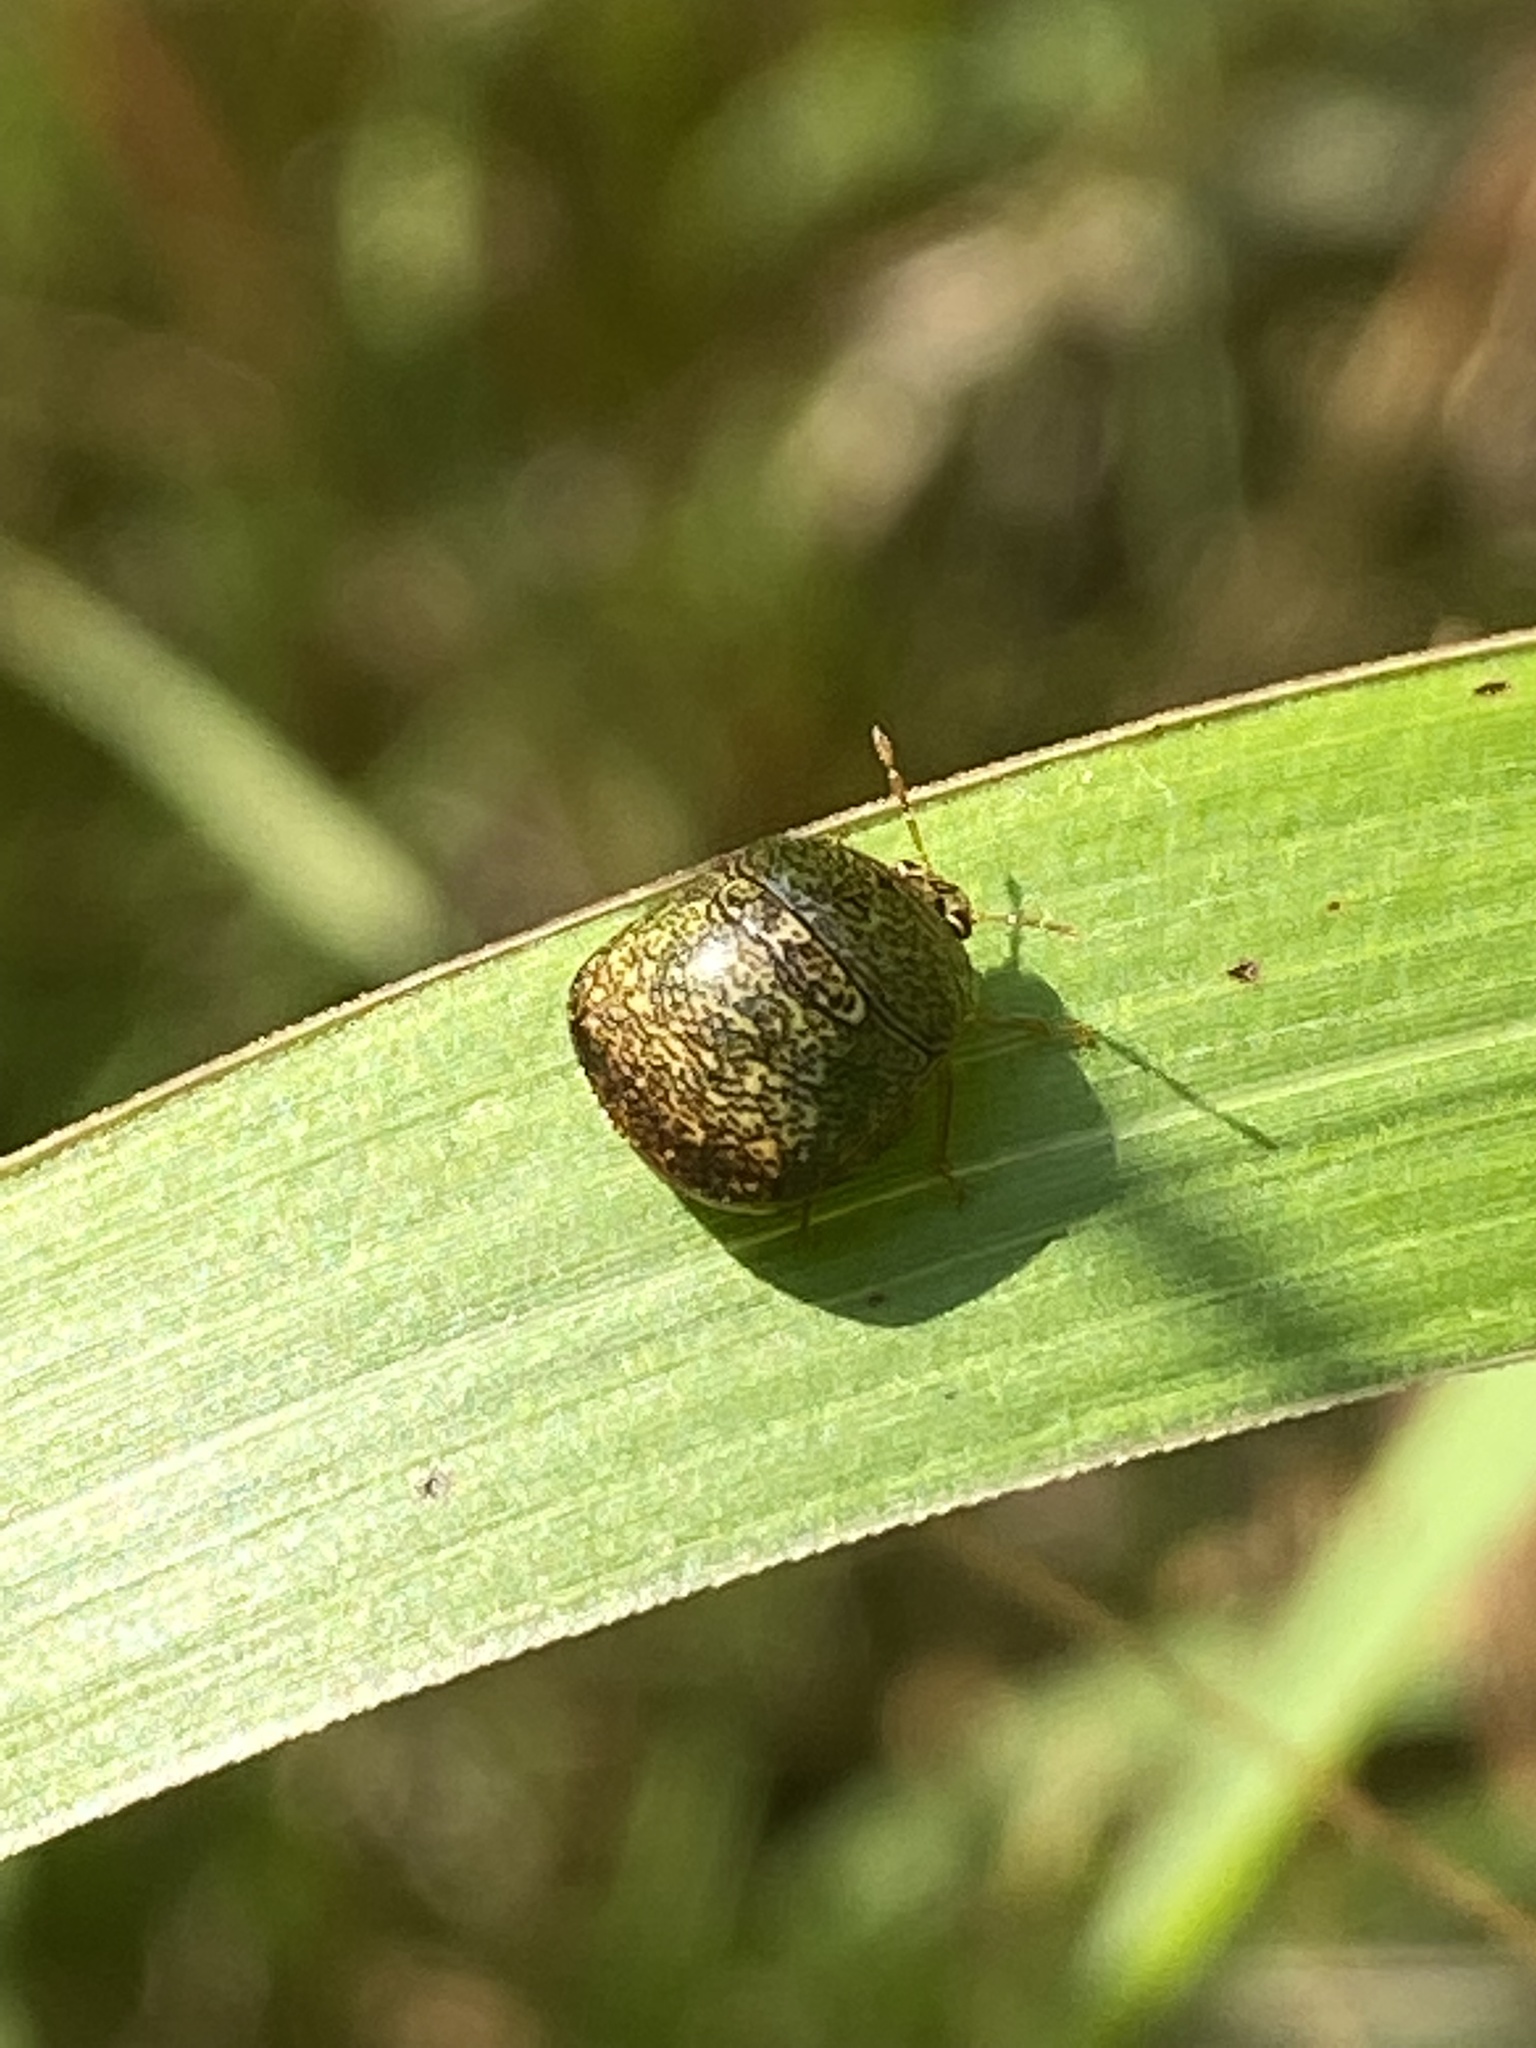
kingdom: Animalia
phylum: Arthropoda
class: Insecta
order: Hemiptera
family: Plataspidae
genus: Megacopta
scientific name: Megacopta cribraria
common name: Bean plataspid
